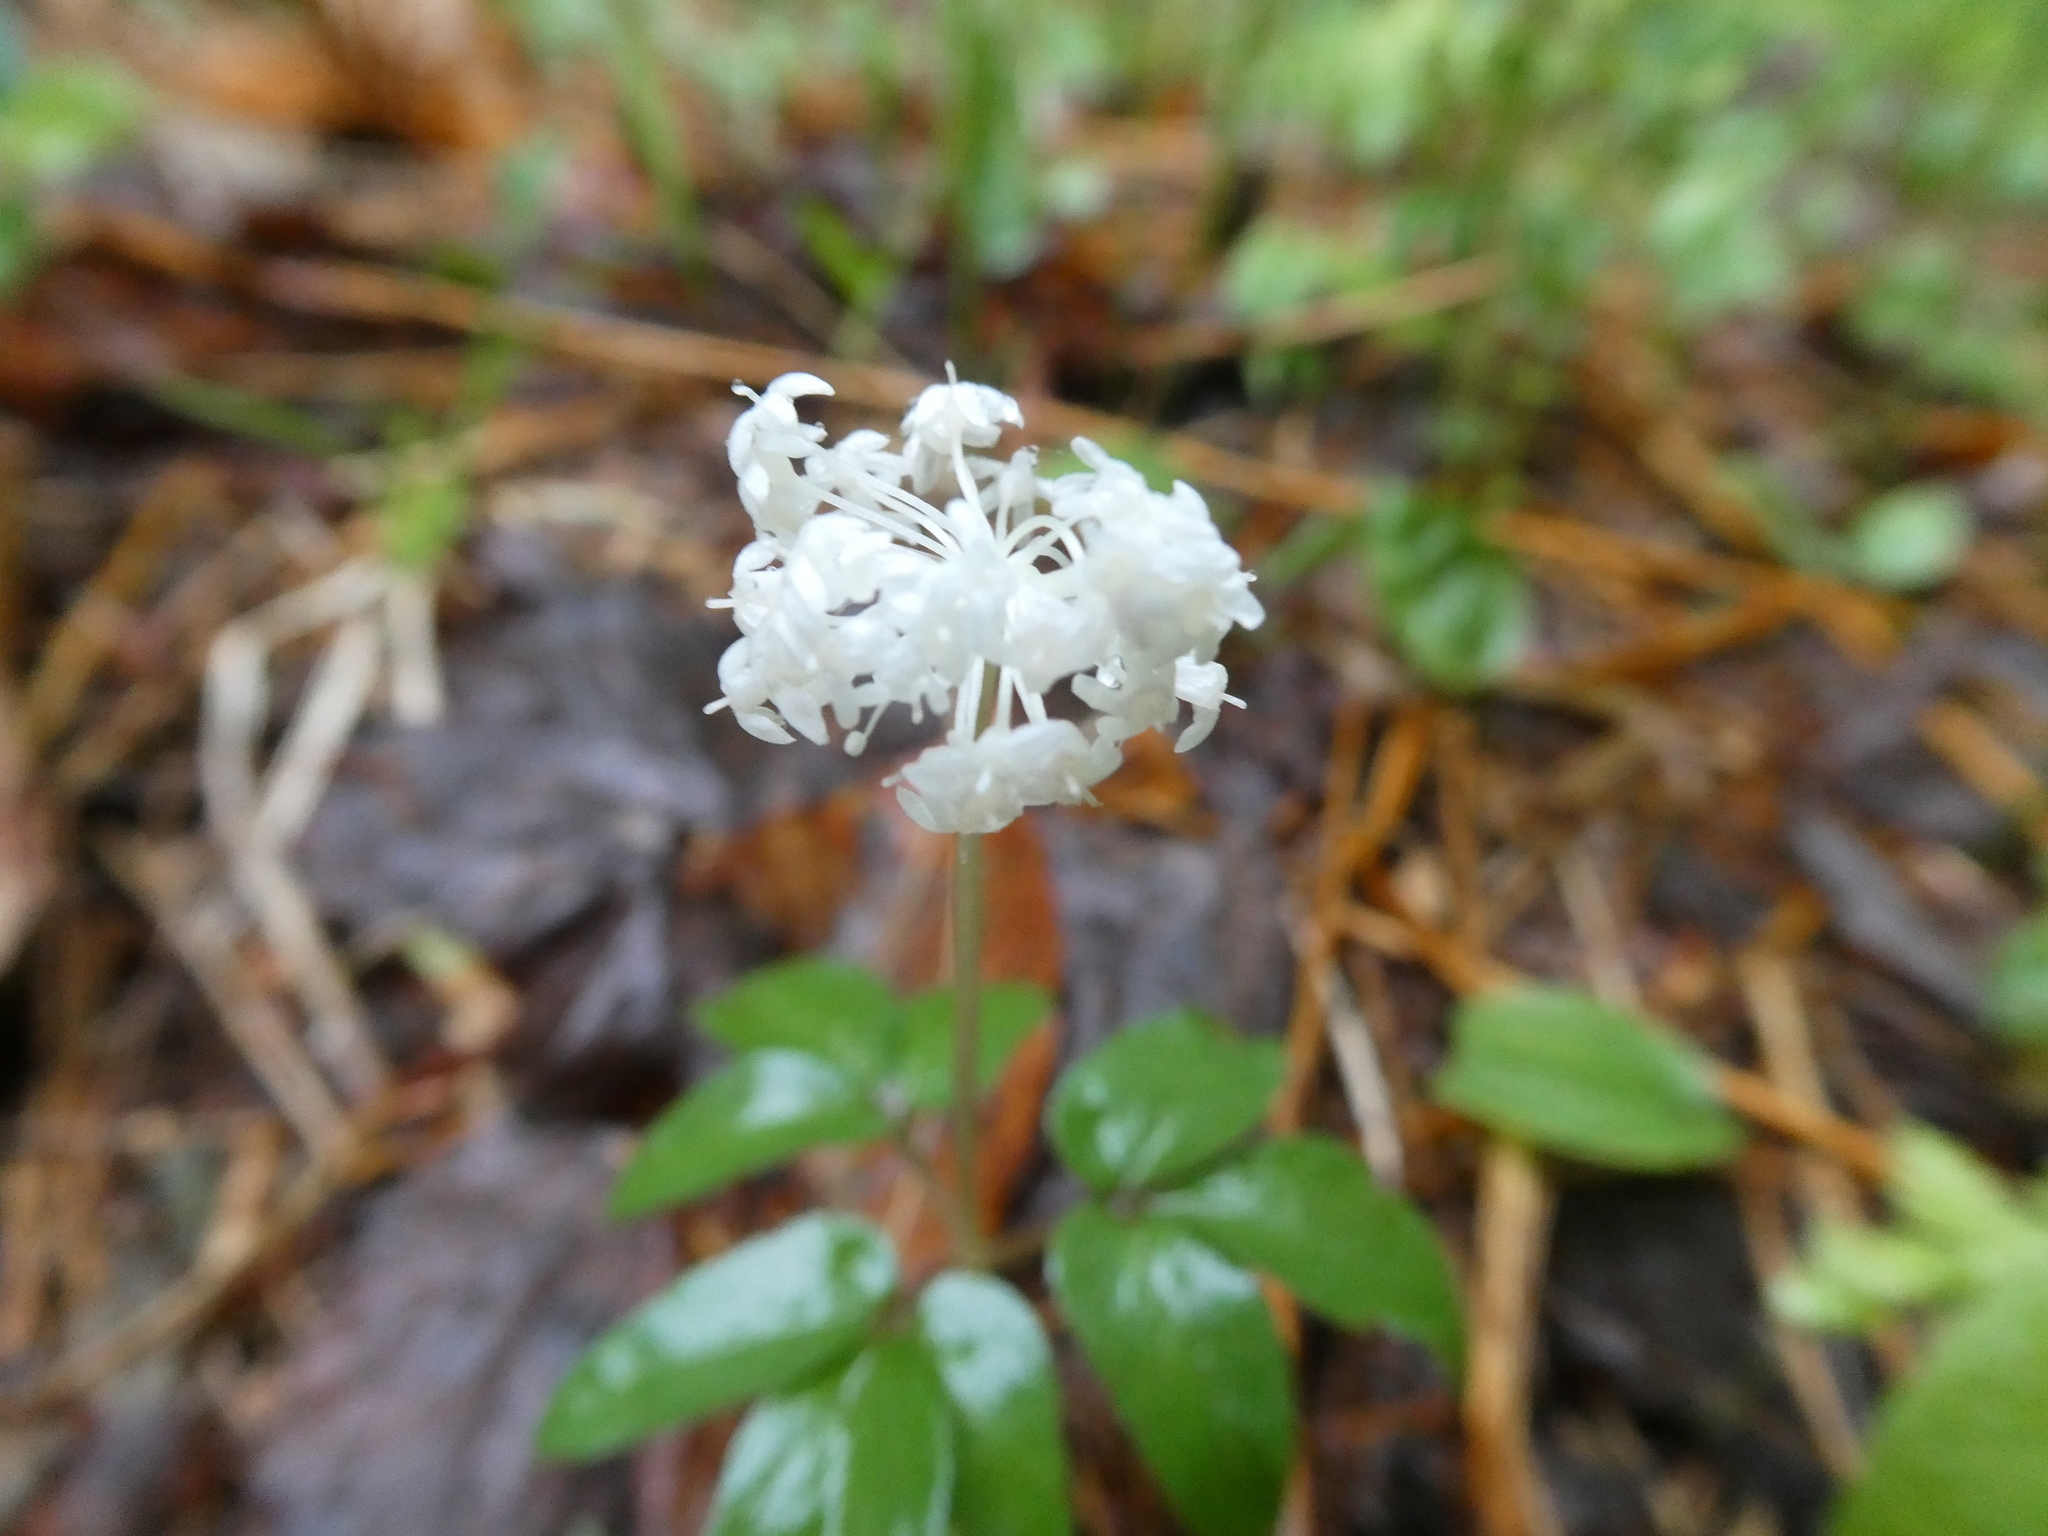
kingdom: Plantae
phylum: Tracheophyta
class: Magnoliopsida
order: Apiales
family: Araliaceae
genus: Panax
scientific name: Panax trifolius
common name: Dwarf ginseng
